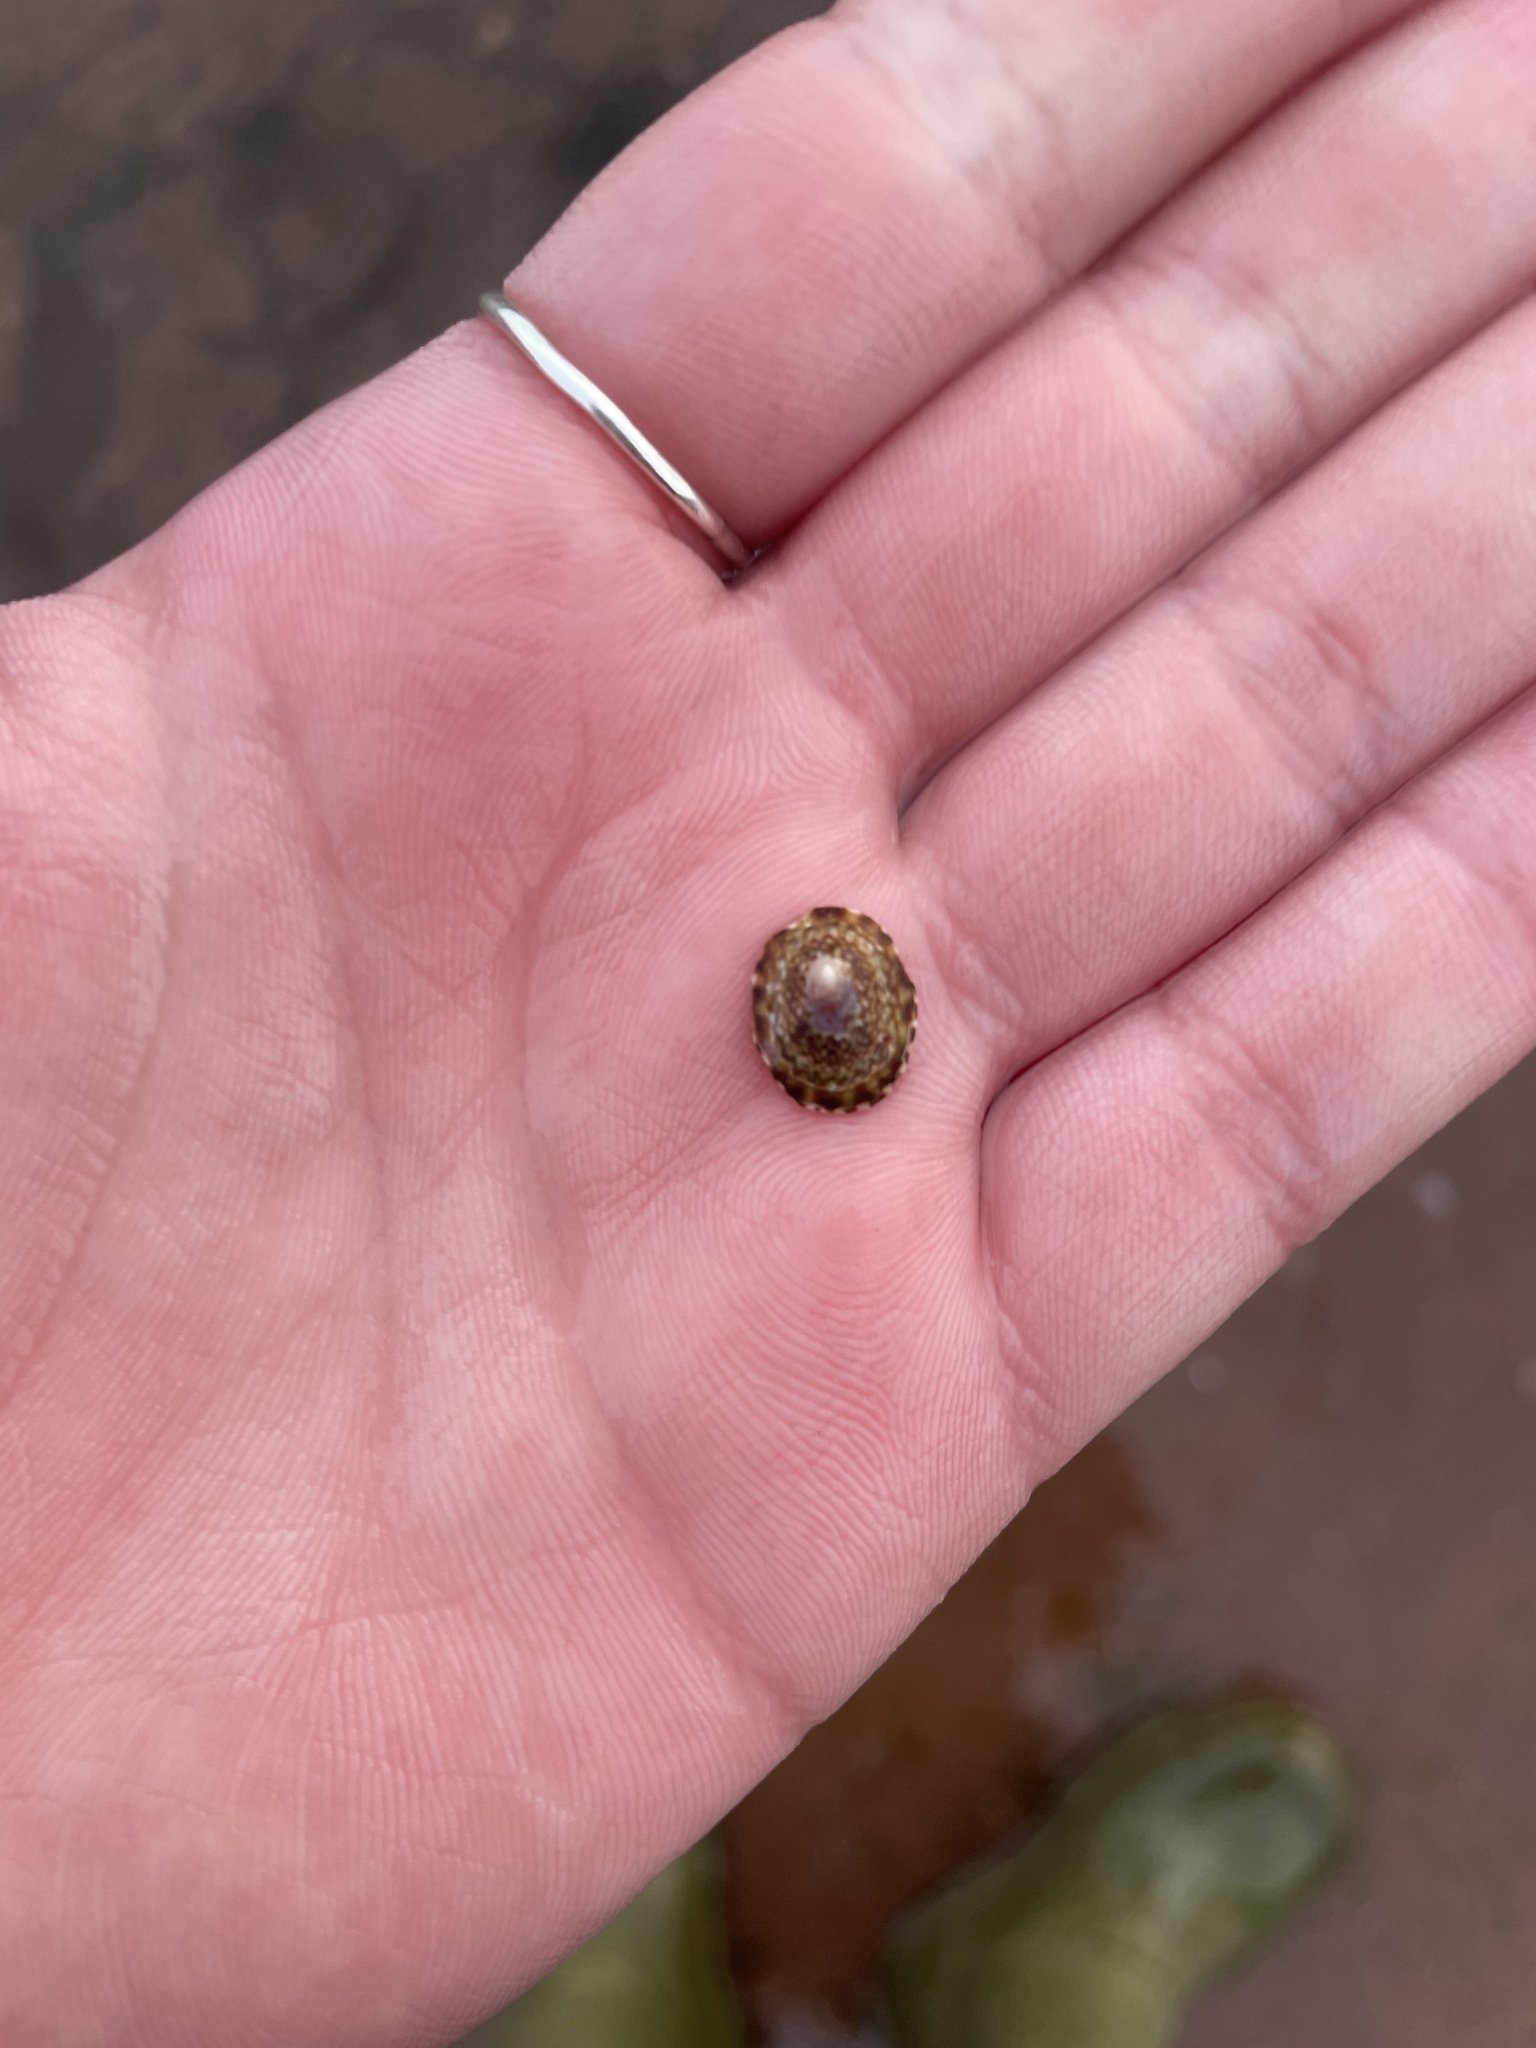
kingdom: Animalia
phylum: Mollusca
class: Gastropoda
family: Lottiidae
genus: Testudinalia
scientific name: Testudinalia testudinalis
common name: Common tortoiseshell limpet
